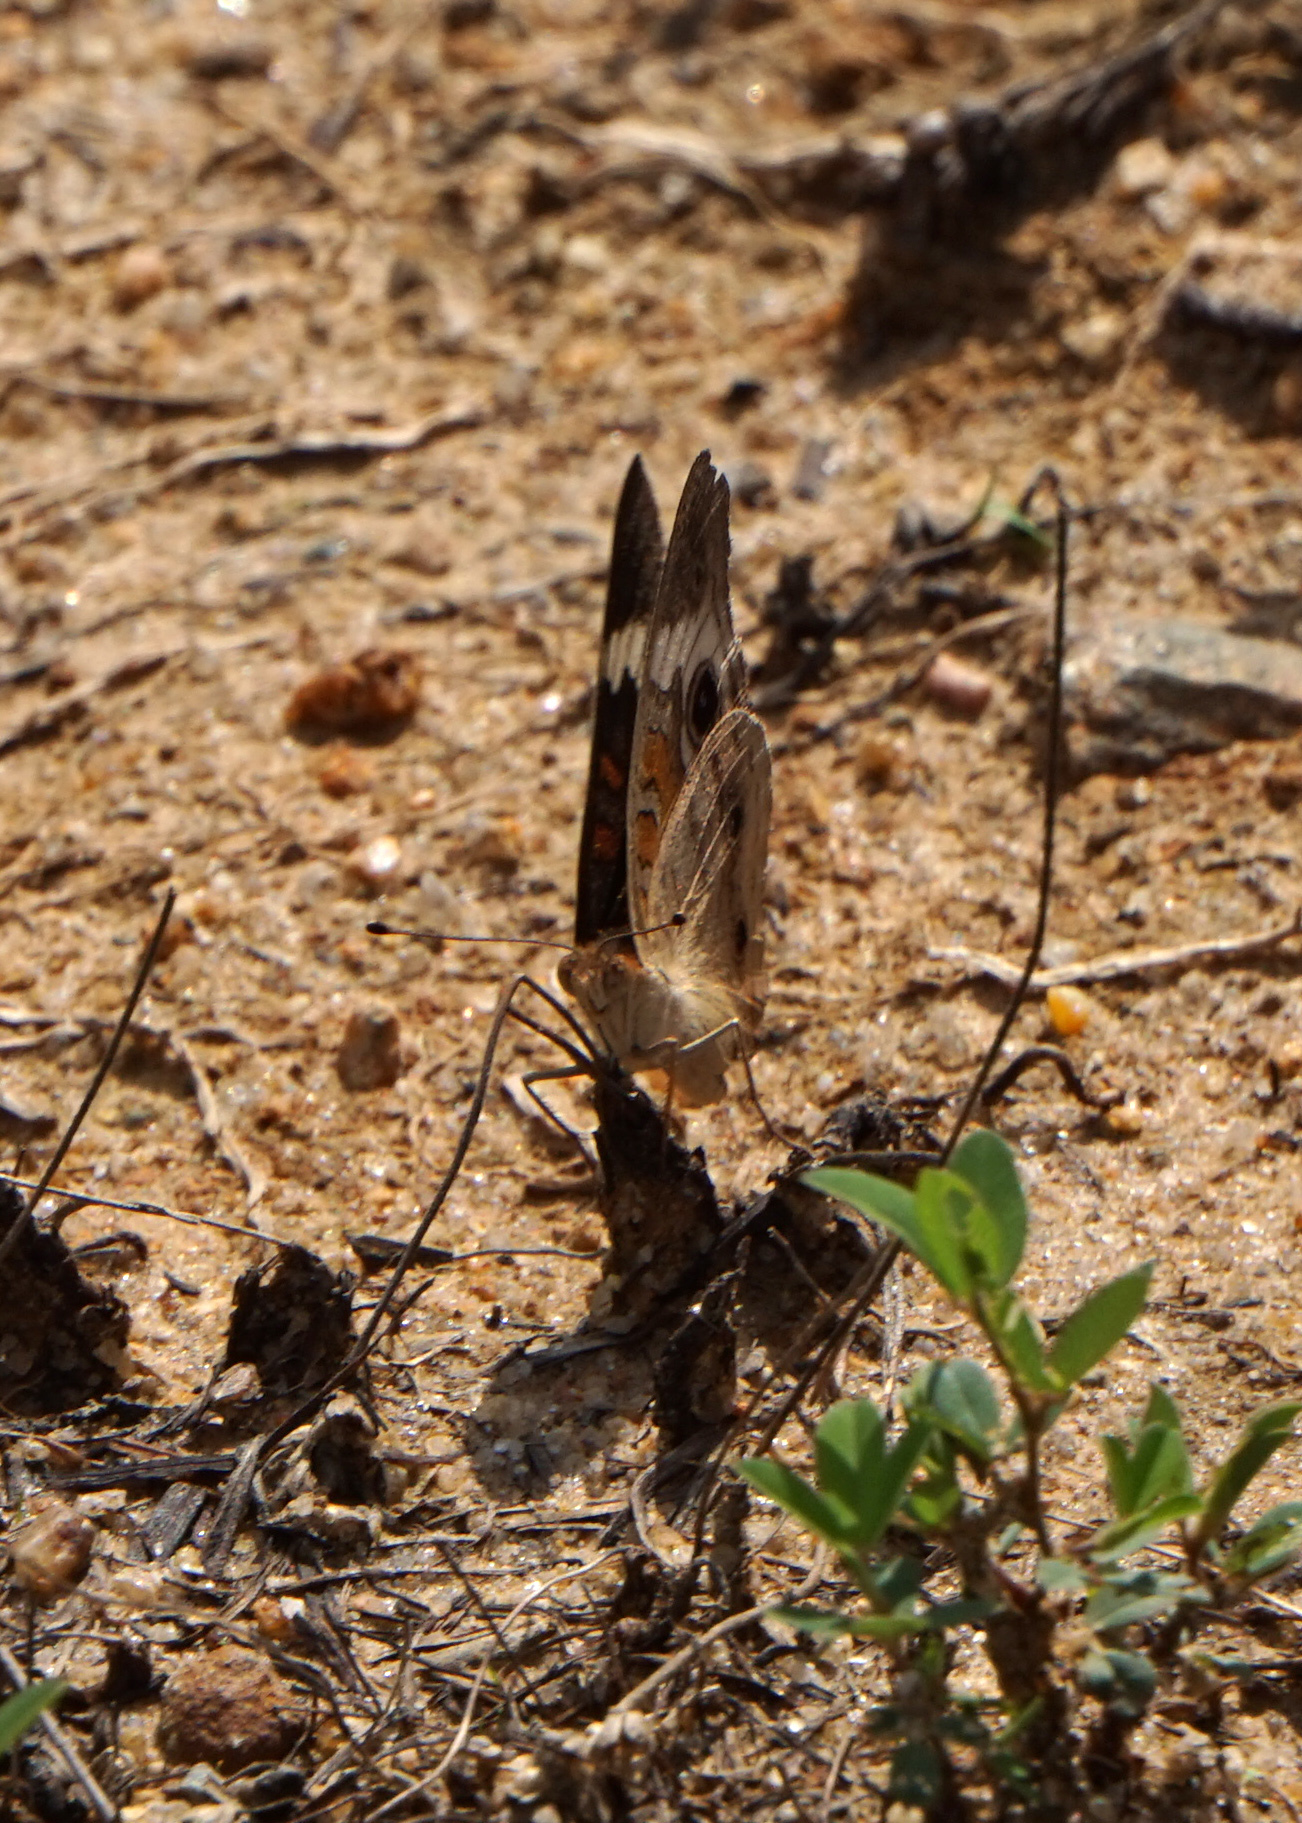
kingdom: Animalia
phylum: Arthropoda
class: Insecta
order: Lepidoptera
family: Nymphalidae
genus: Junonia
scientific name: Junonia coenia
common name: Common buckeye
